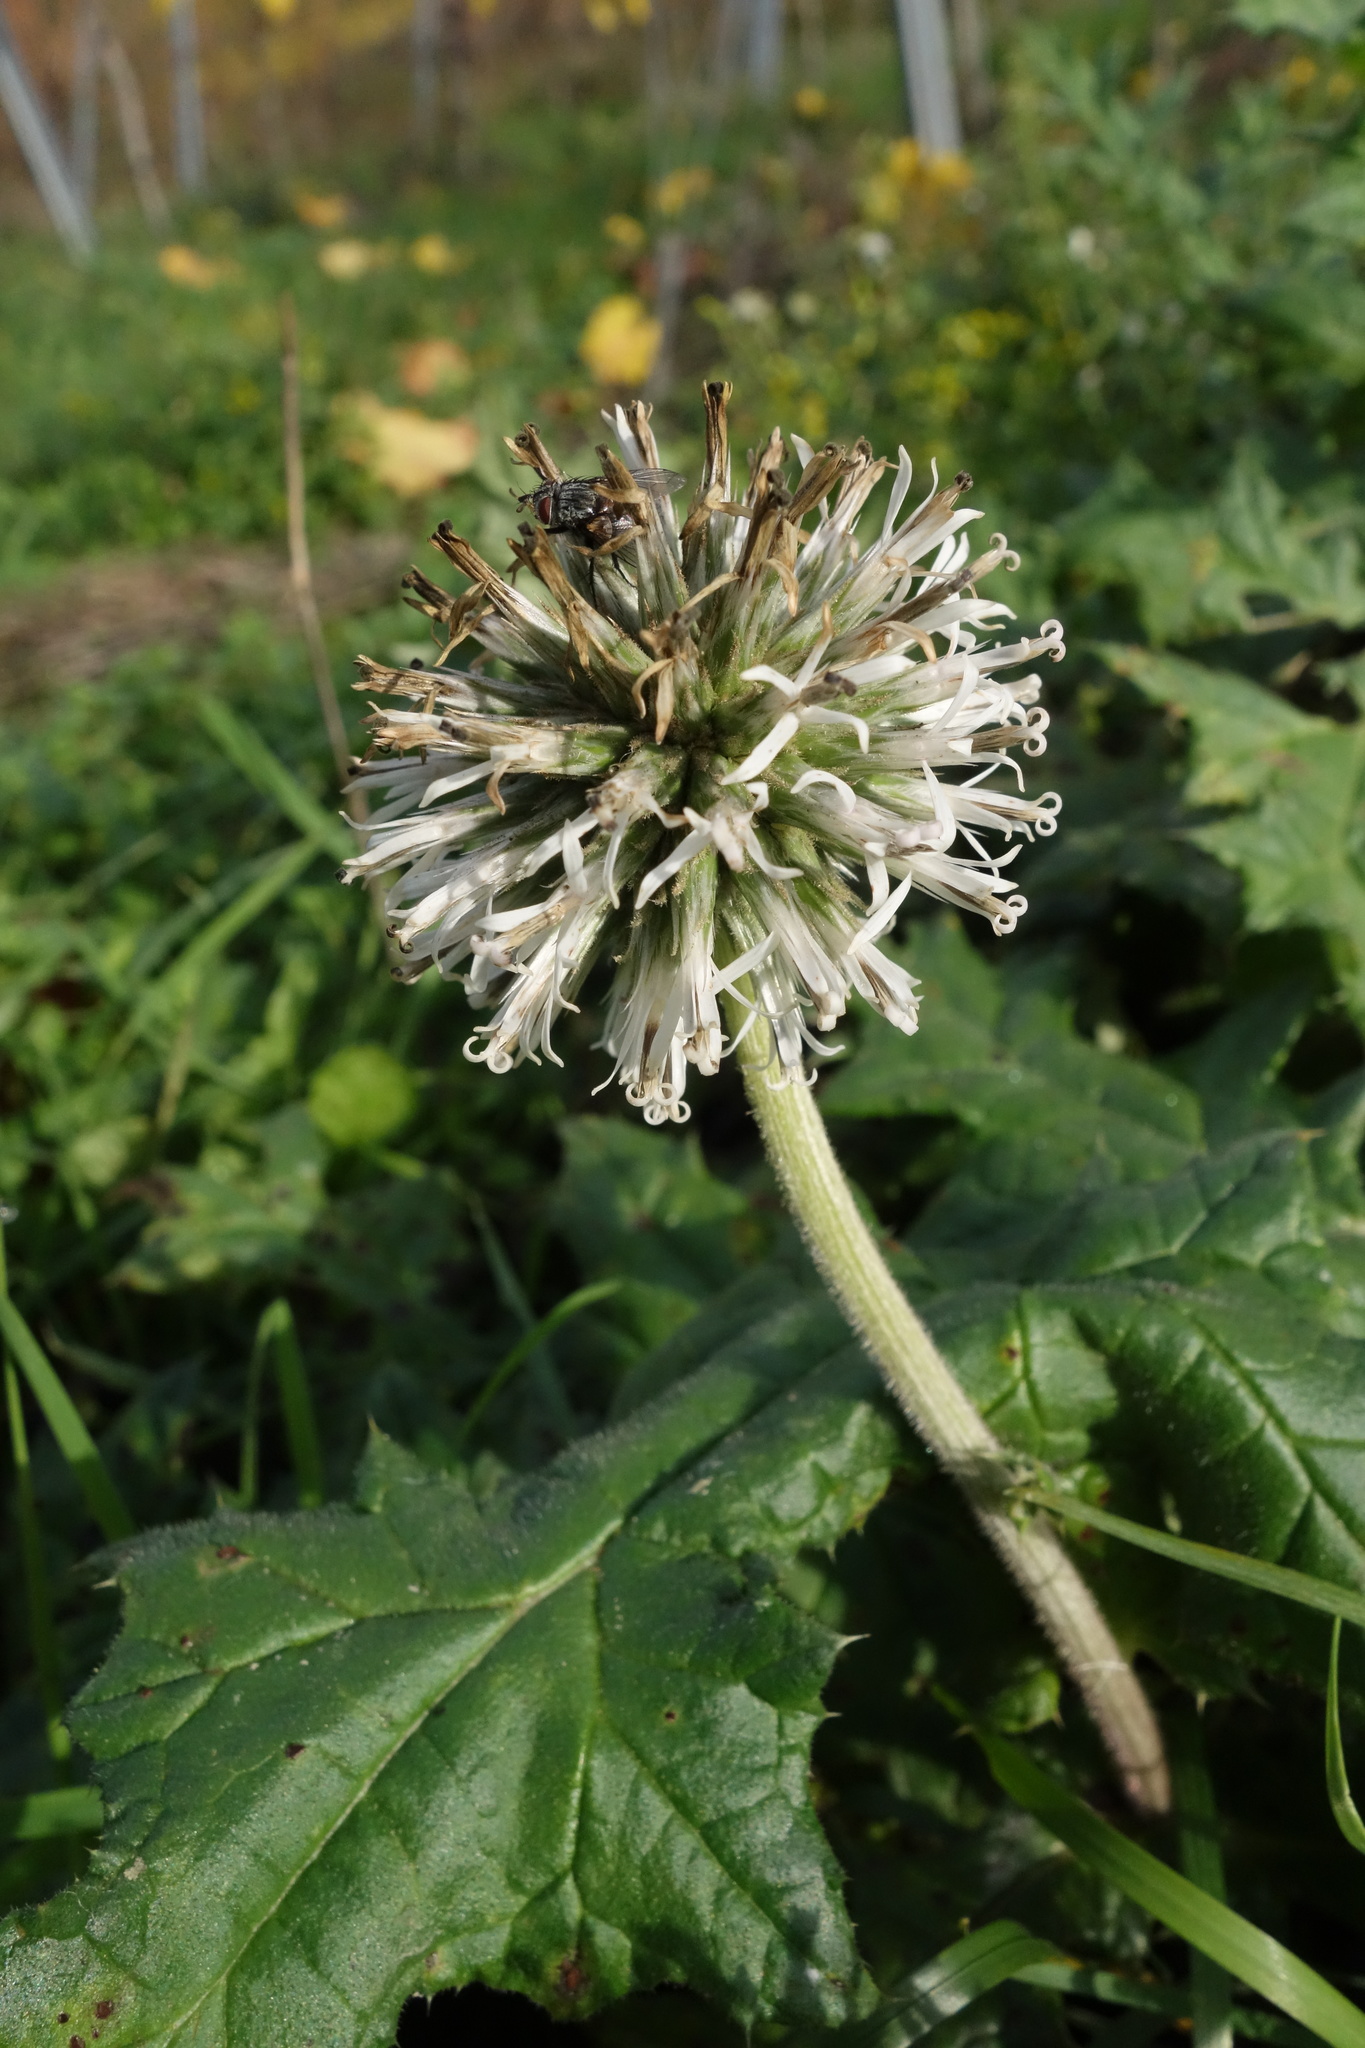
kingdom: Plantae
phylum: Tracheophyta
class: Magnoliopsida
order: Asterales
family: Asteraceae
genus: Echinops
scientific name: Echinops sphaerocephalus
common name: Glandular globe-thistle
